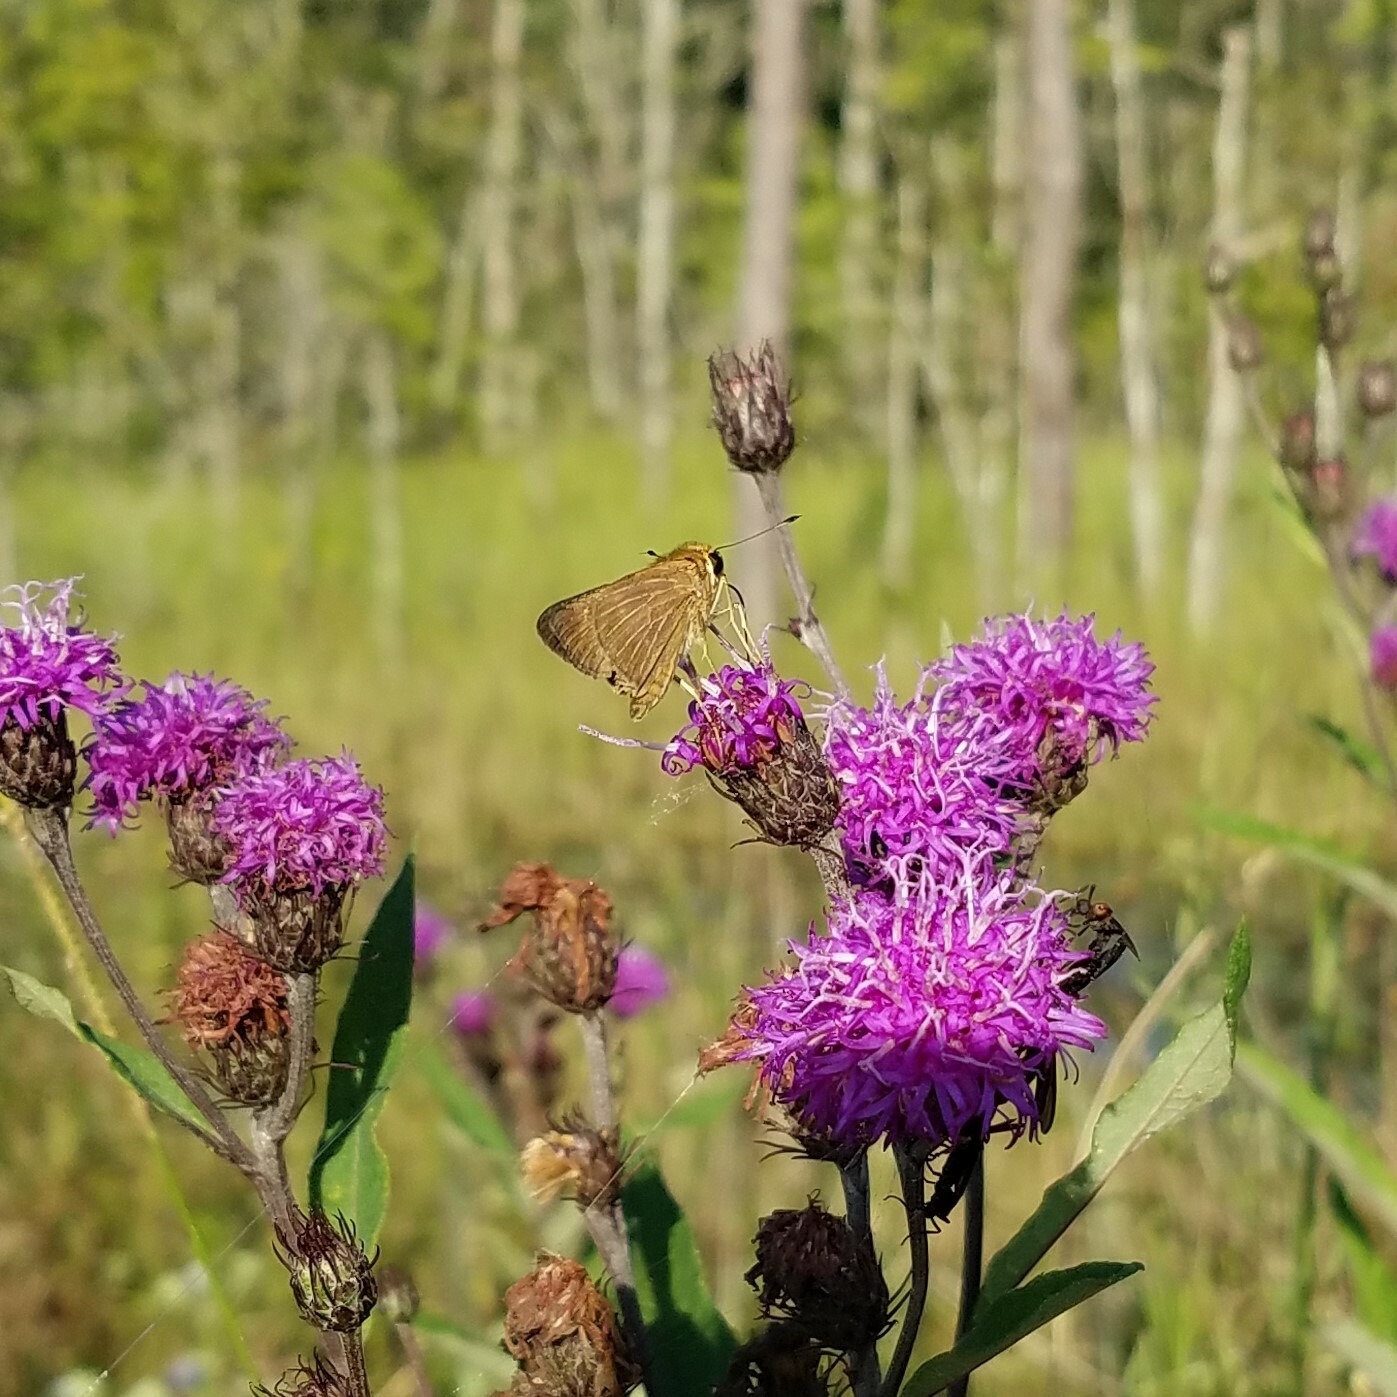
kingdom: Animalia
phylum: Arthropoda
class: Insecta
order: Lepidoptera
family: Hesperiidae
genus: Panoquina
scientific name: Panoquina ocola
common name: Ocola skipper
